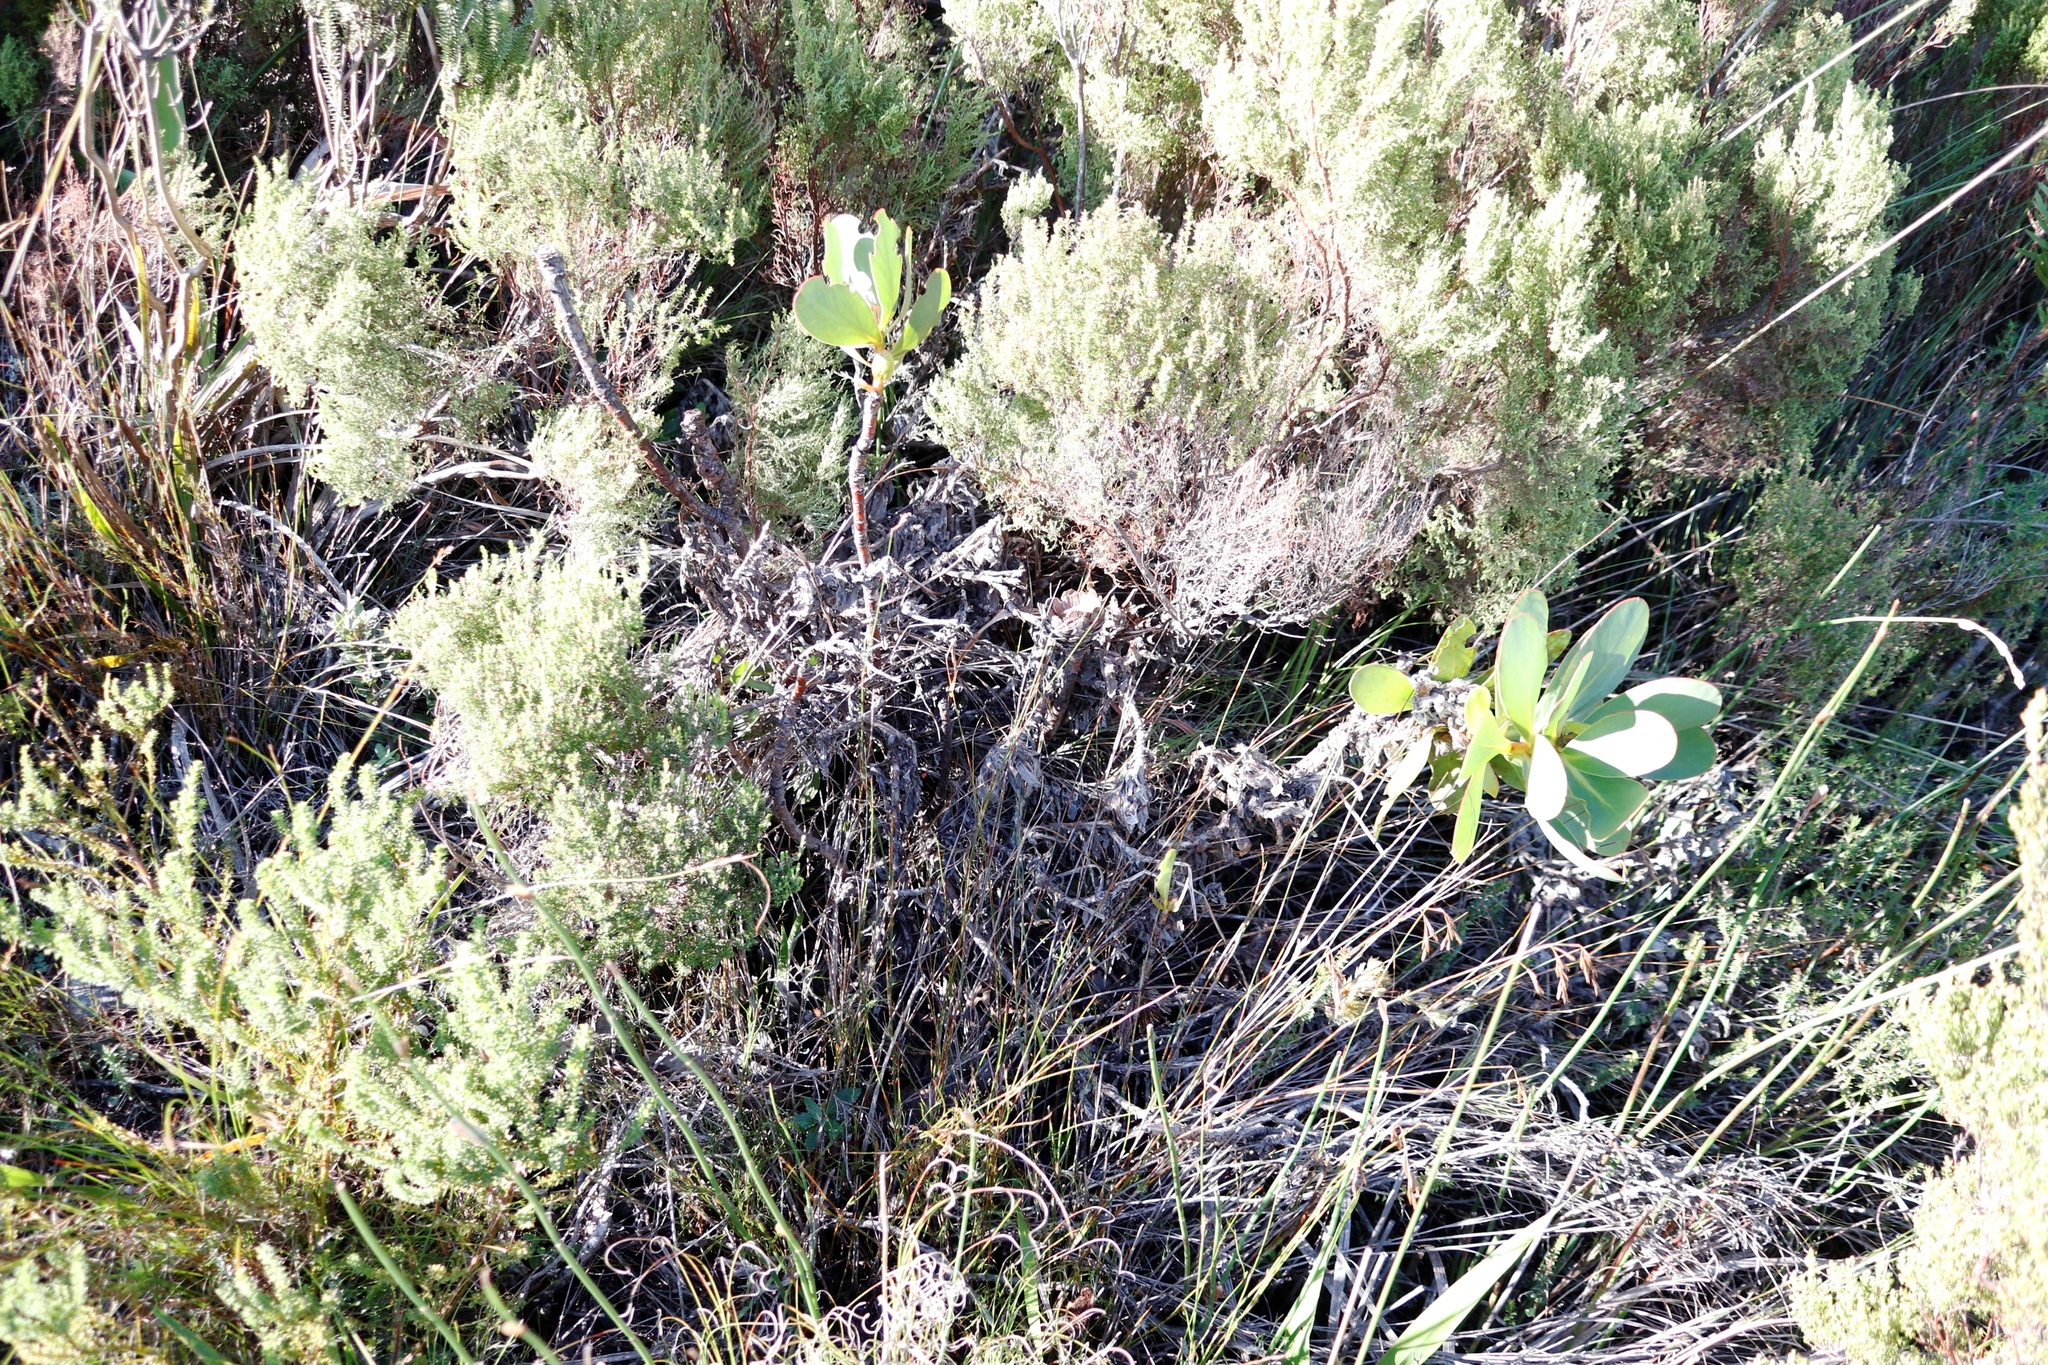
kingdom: Plantae
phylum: Tracheophyta
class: Magnoliopsida
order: Proteales
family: Proteaceae
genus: Protea
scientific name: Protea speciosa
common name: Brown-beard sugarbush
